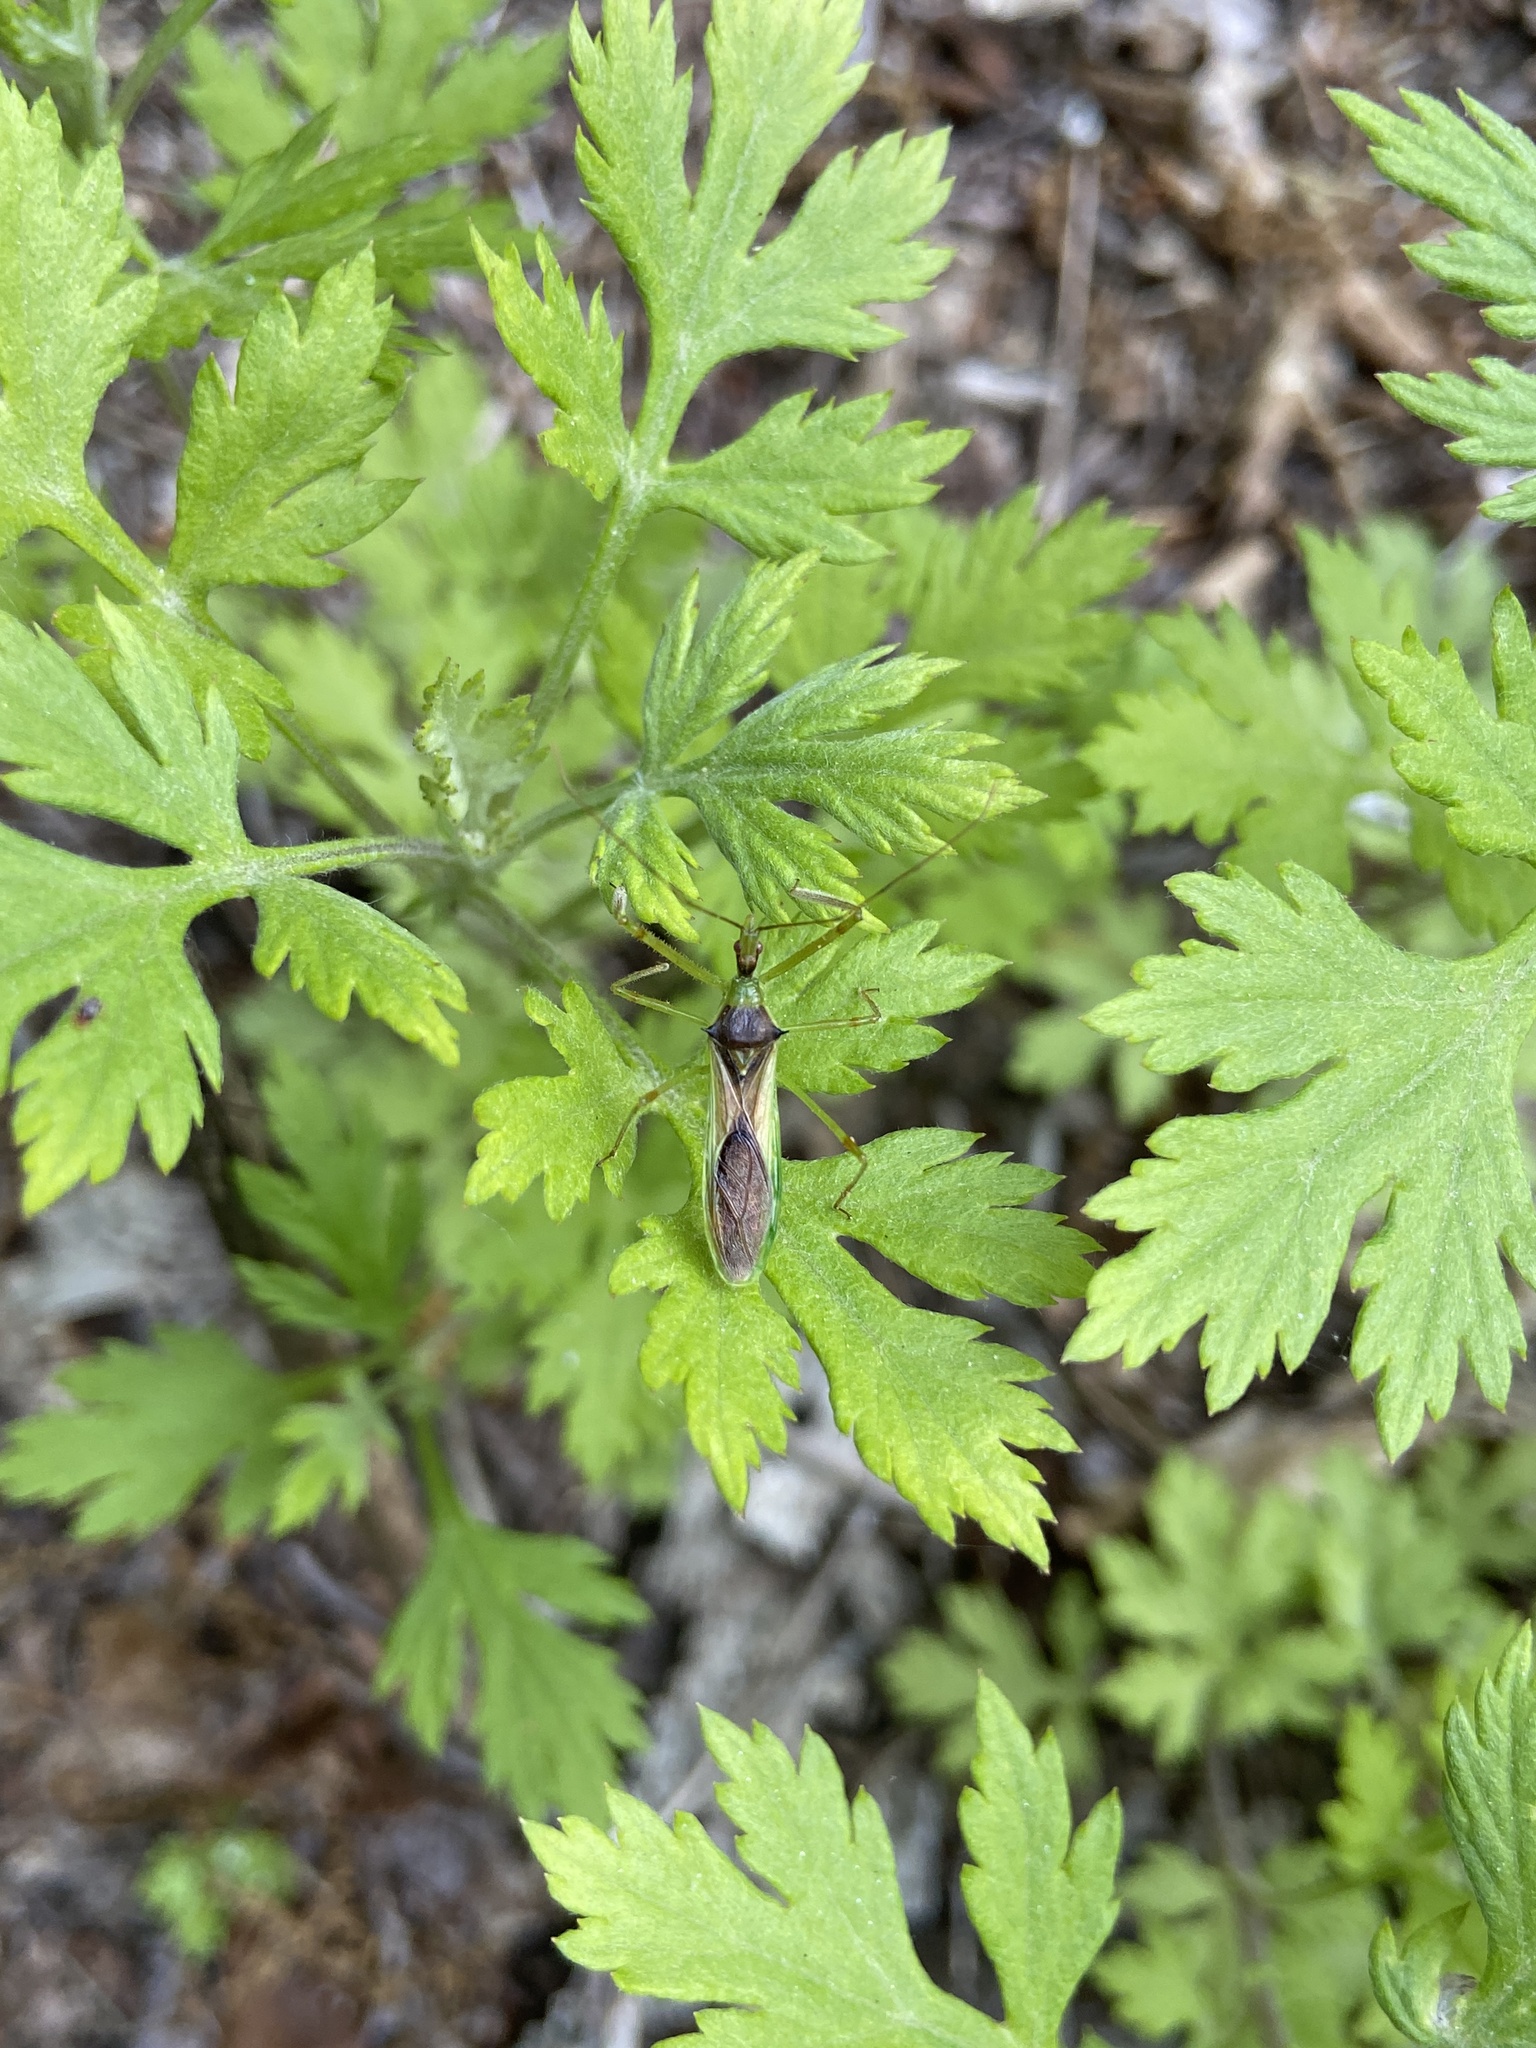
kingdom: Animalia
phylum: Arthropoda
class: Insecta
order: Hemiptera
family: Reduviidae
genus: Zelus
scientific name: Zelus luridus
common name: Pale green assassin bug
